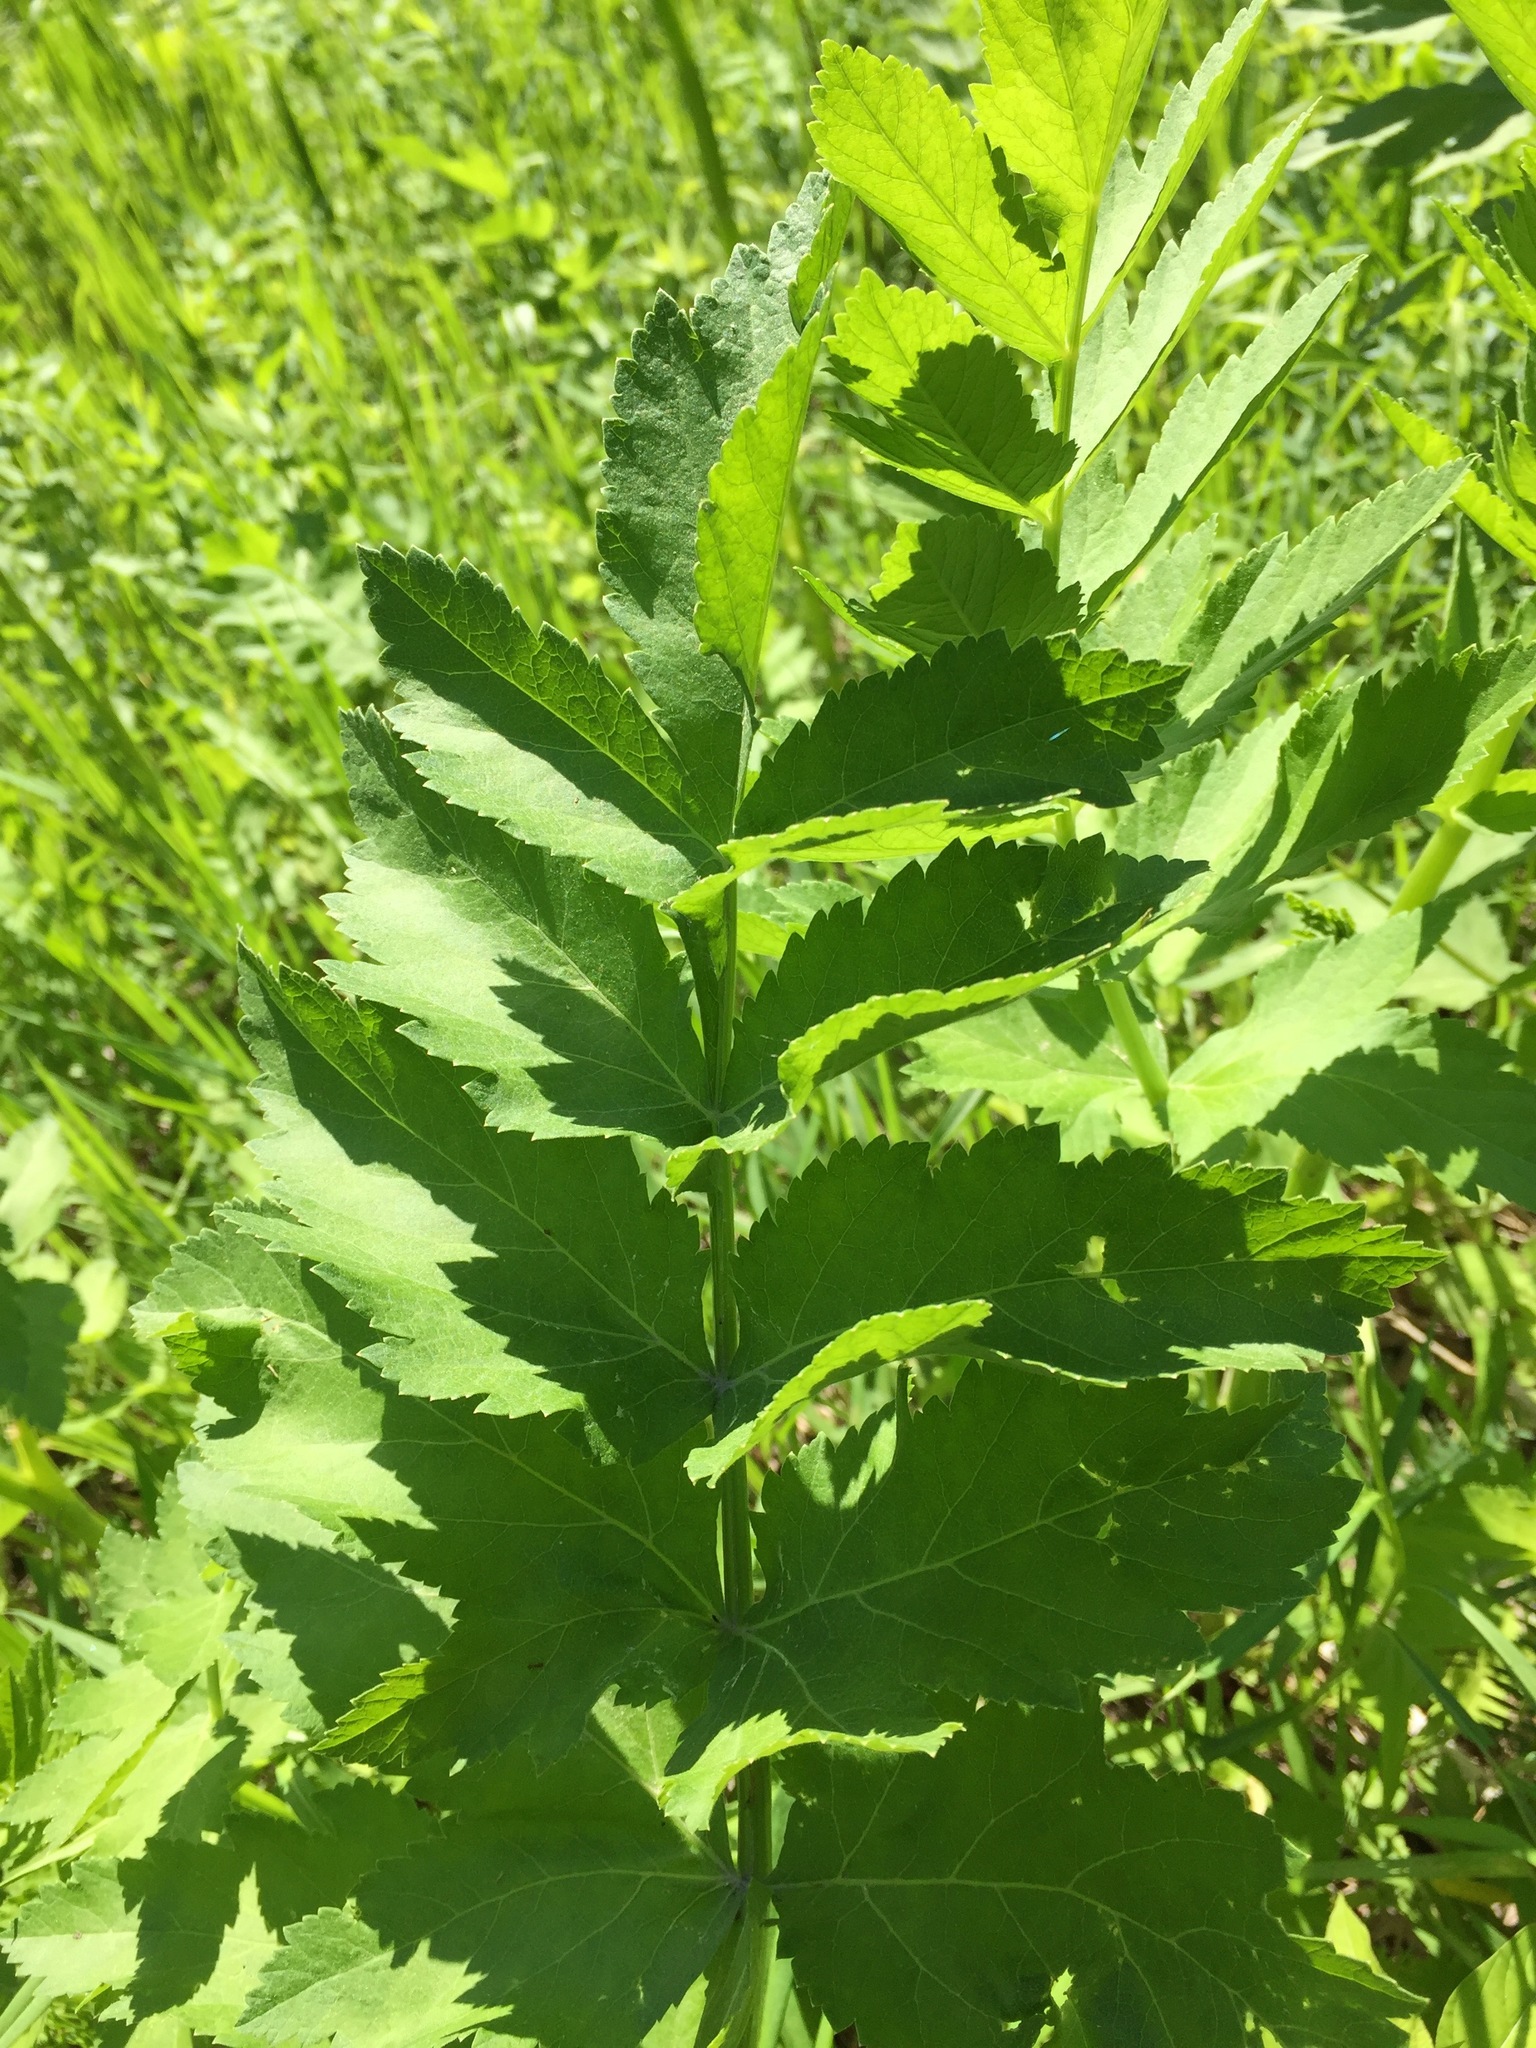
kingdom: Plantae
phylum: Tracheophyta
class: Magnoliopsida
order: Apiales
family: Apiaceae
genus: Pastinaca
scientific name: Pastinaca sativa
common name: Wild parsnip
